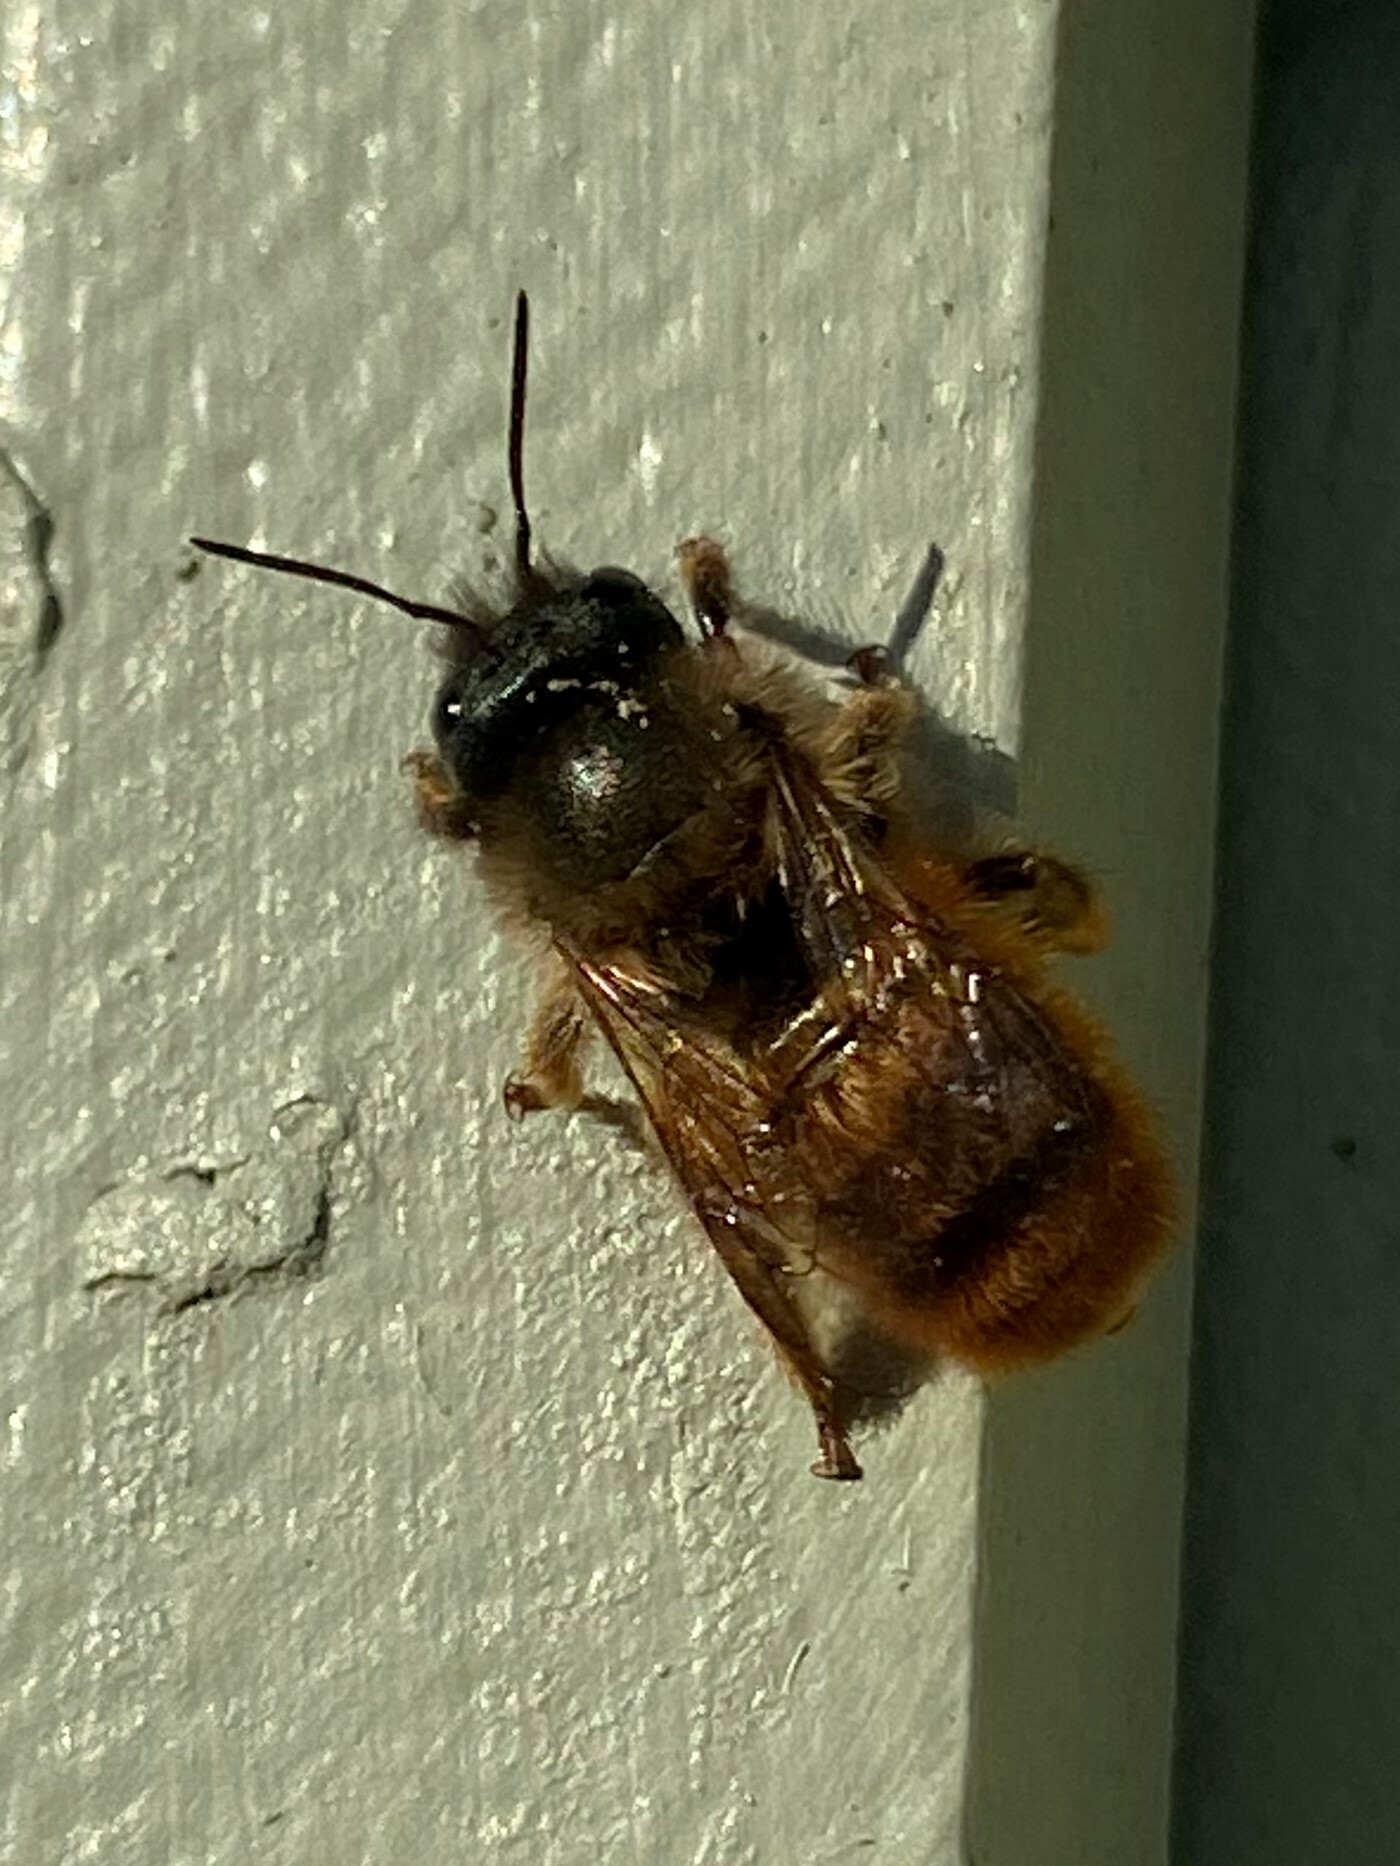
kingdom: Animalia
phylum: Arthropoda
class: Insecta
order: Hymenoptera
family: Megachilidae
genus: Osmia
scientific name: Osmia bicornis
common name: Red mason bee
